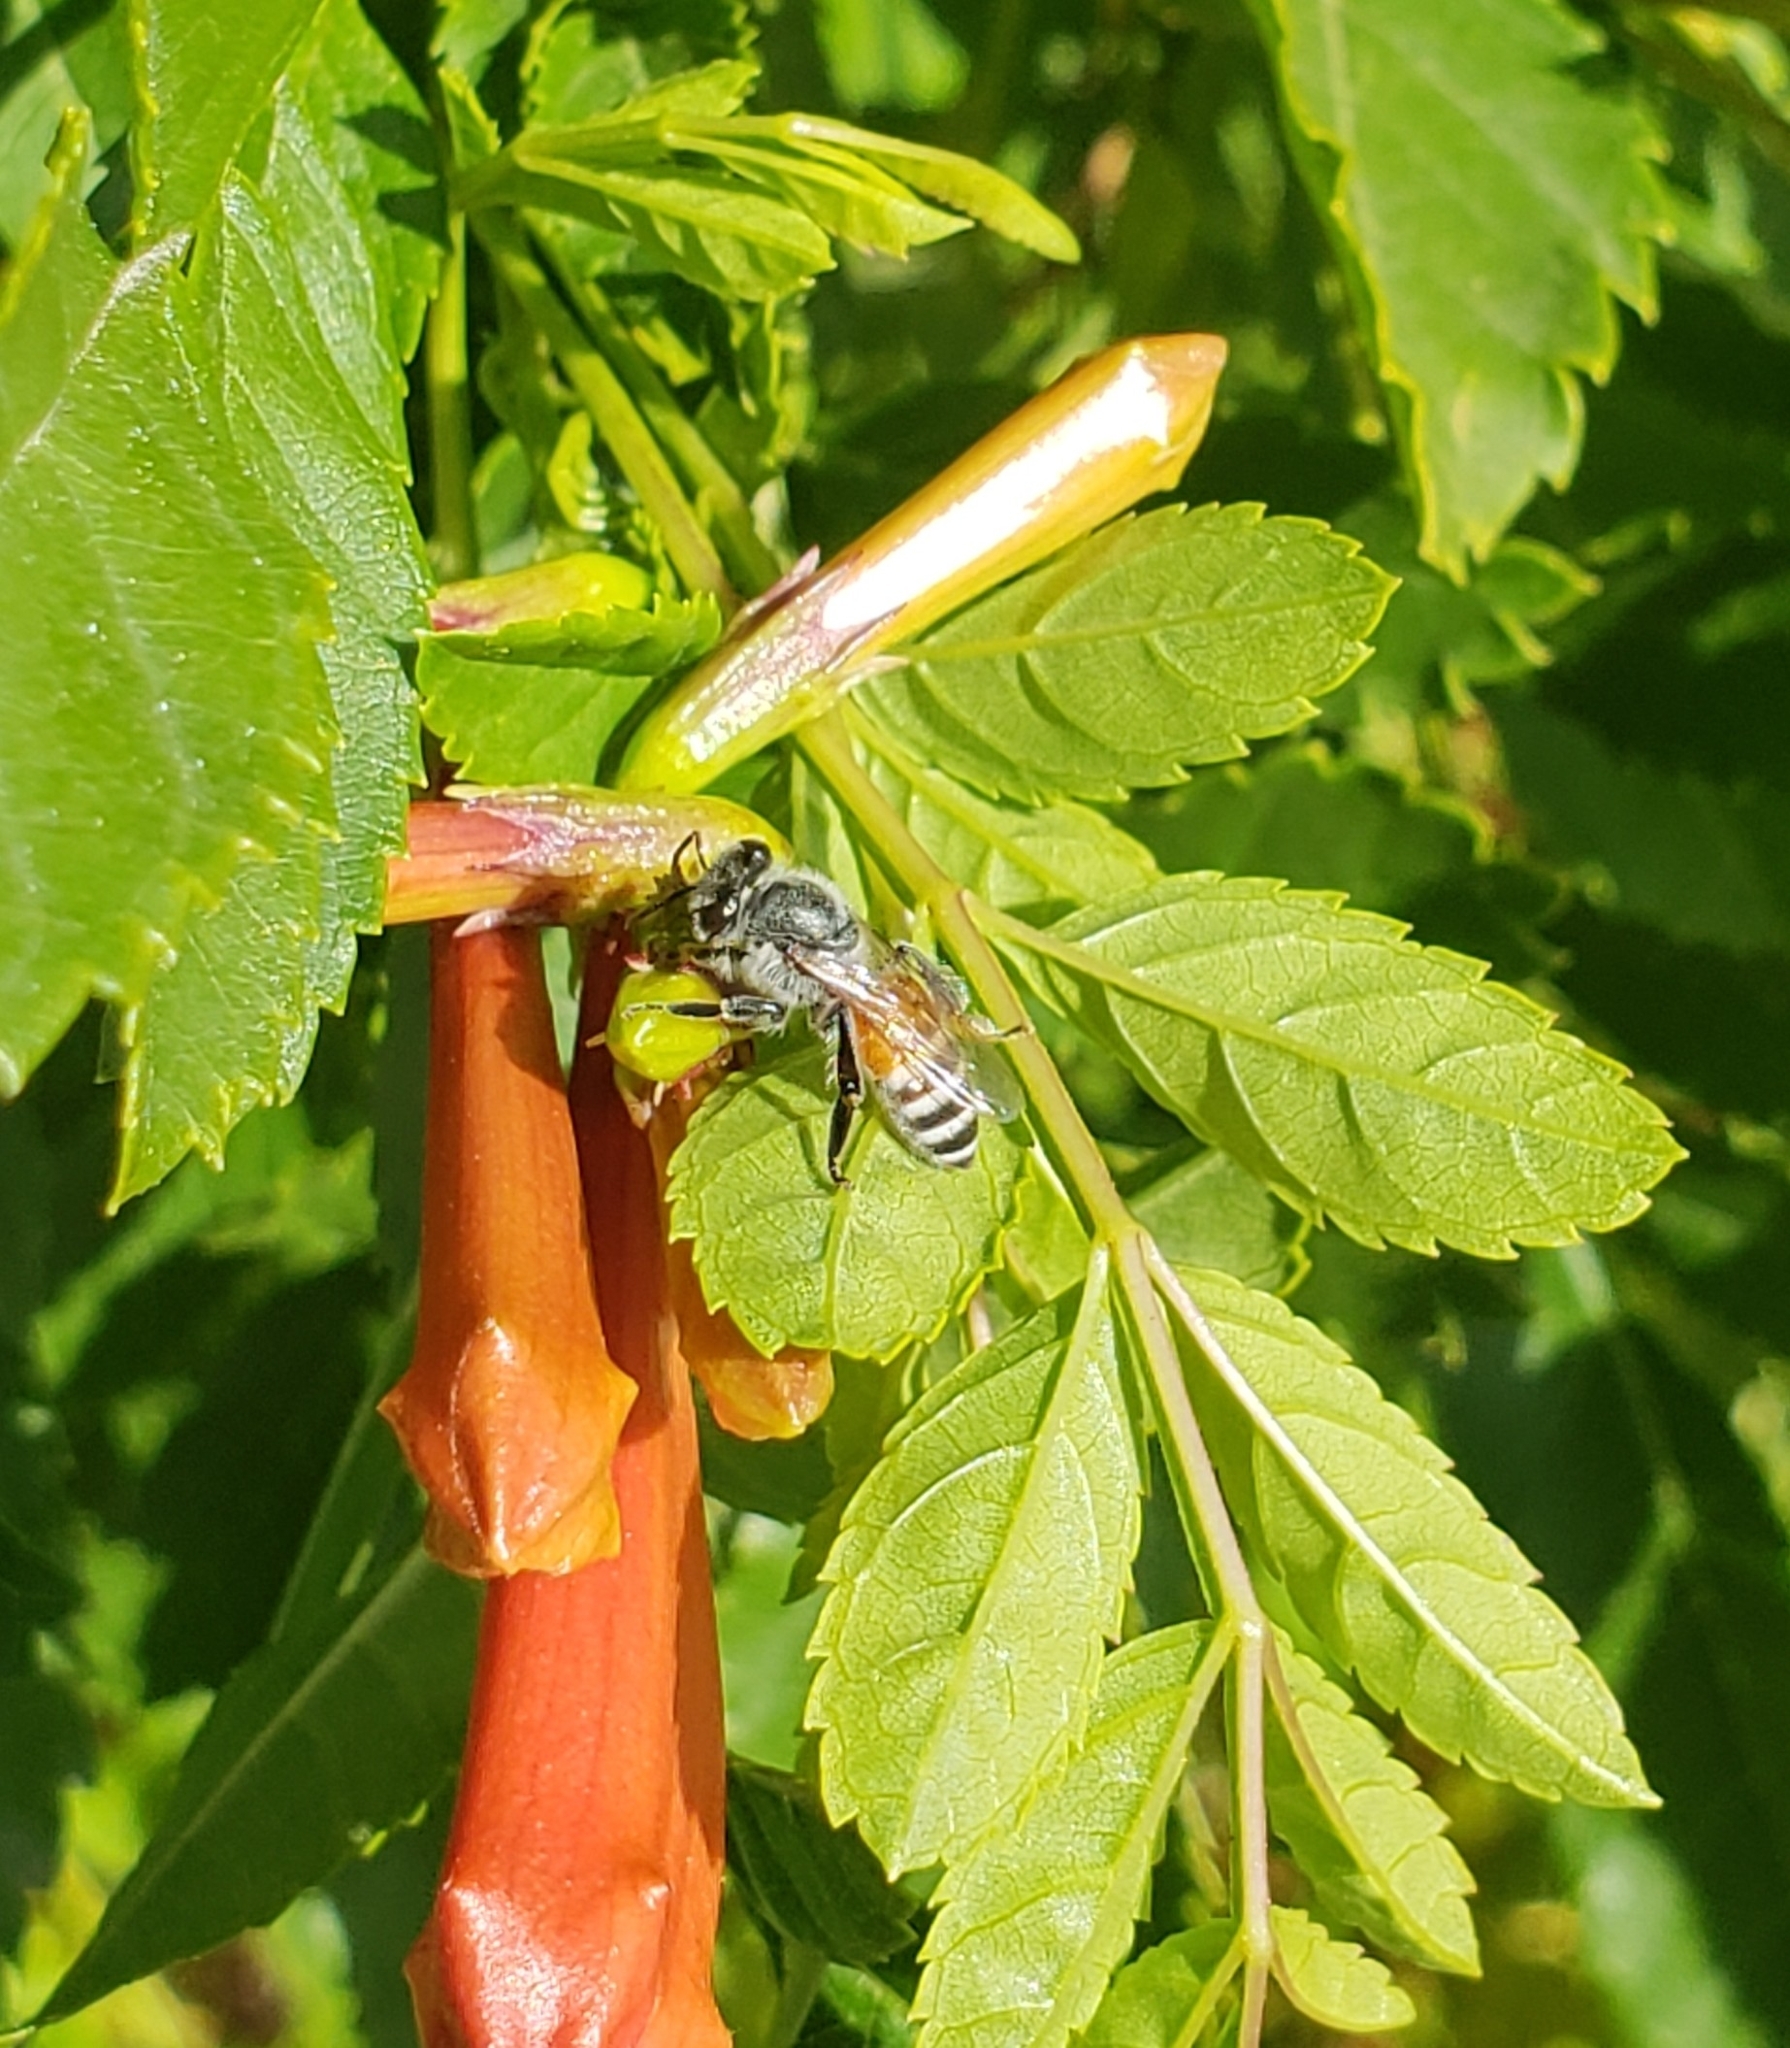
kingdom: Animalia
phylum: Arthropoda
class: Insecta
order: Hymenoptera
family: Apidae
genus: Apis
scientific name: Apis florea
